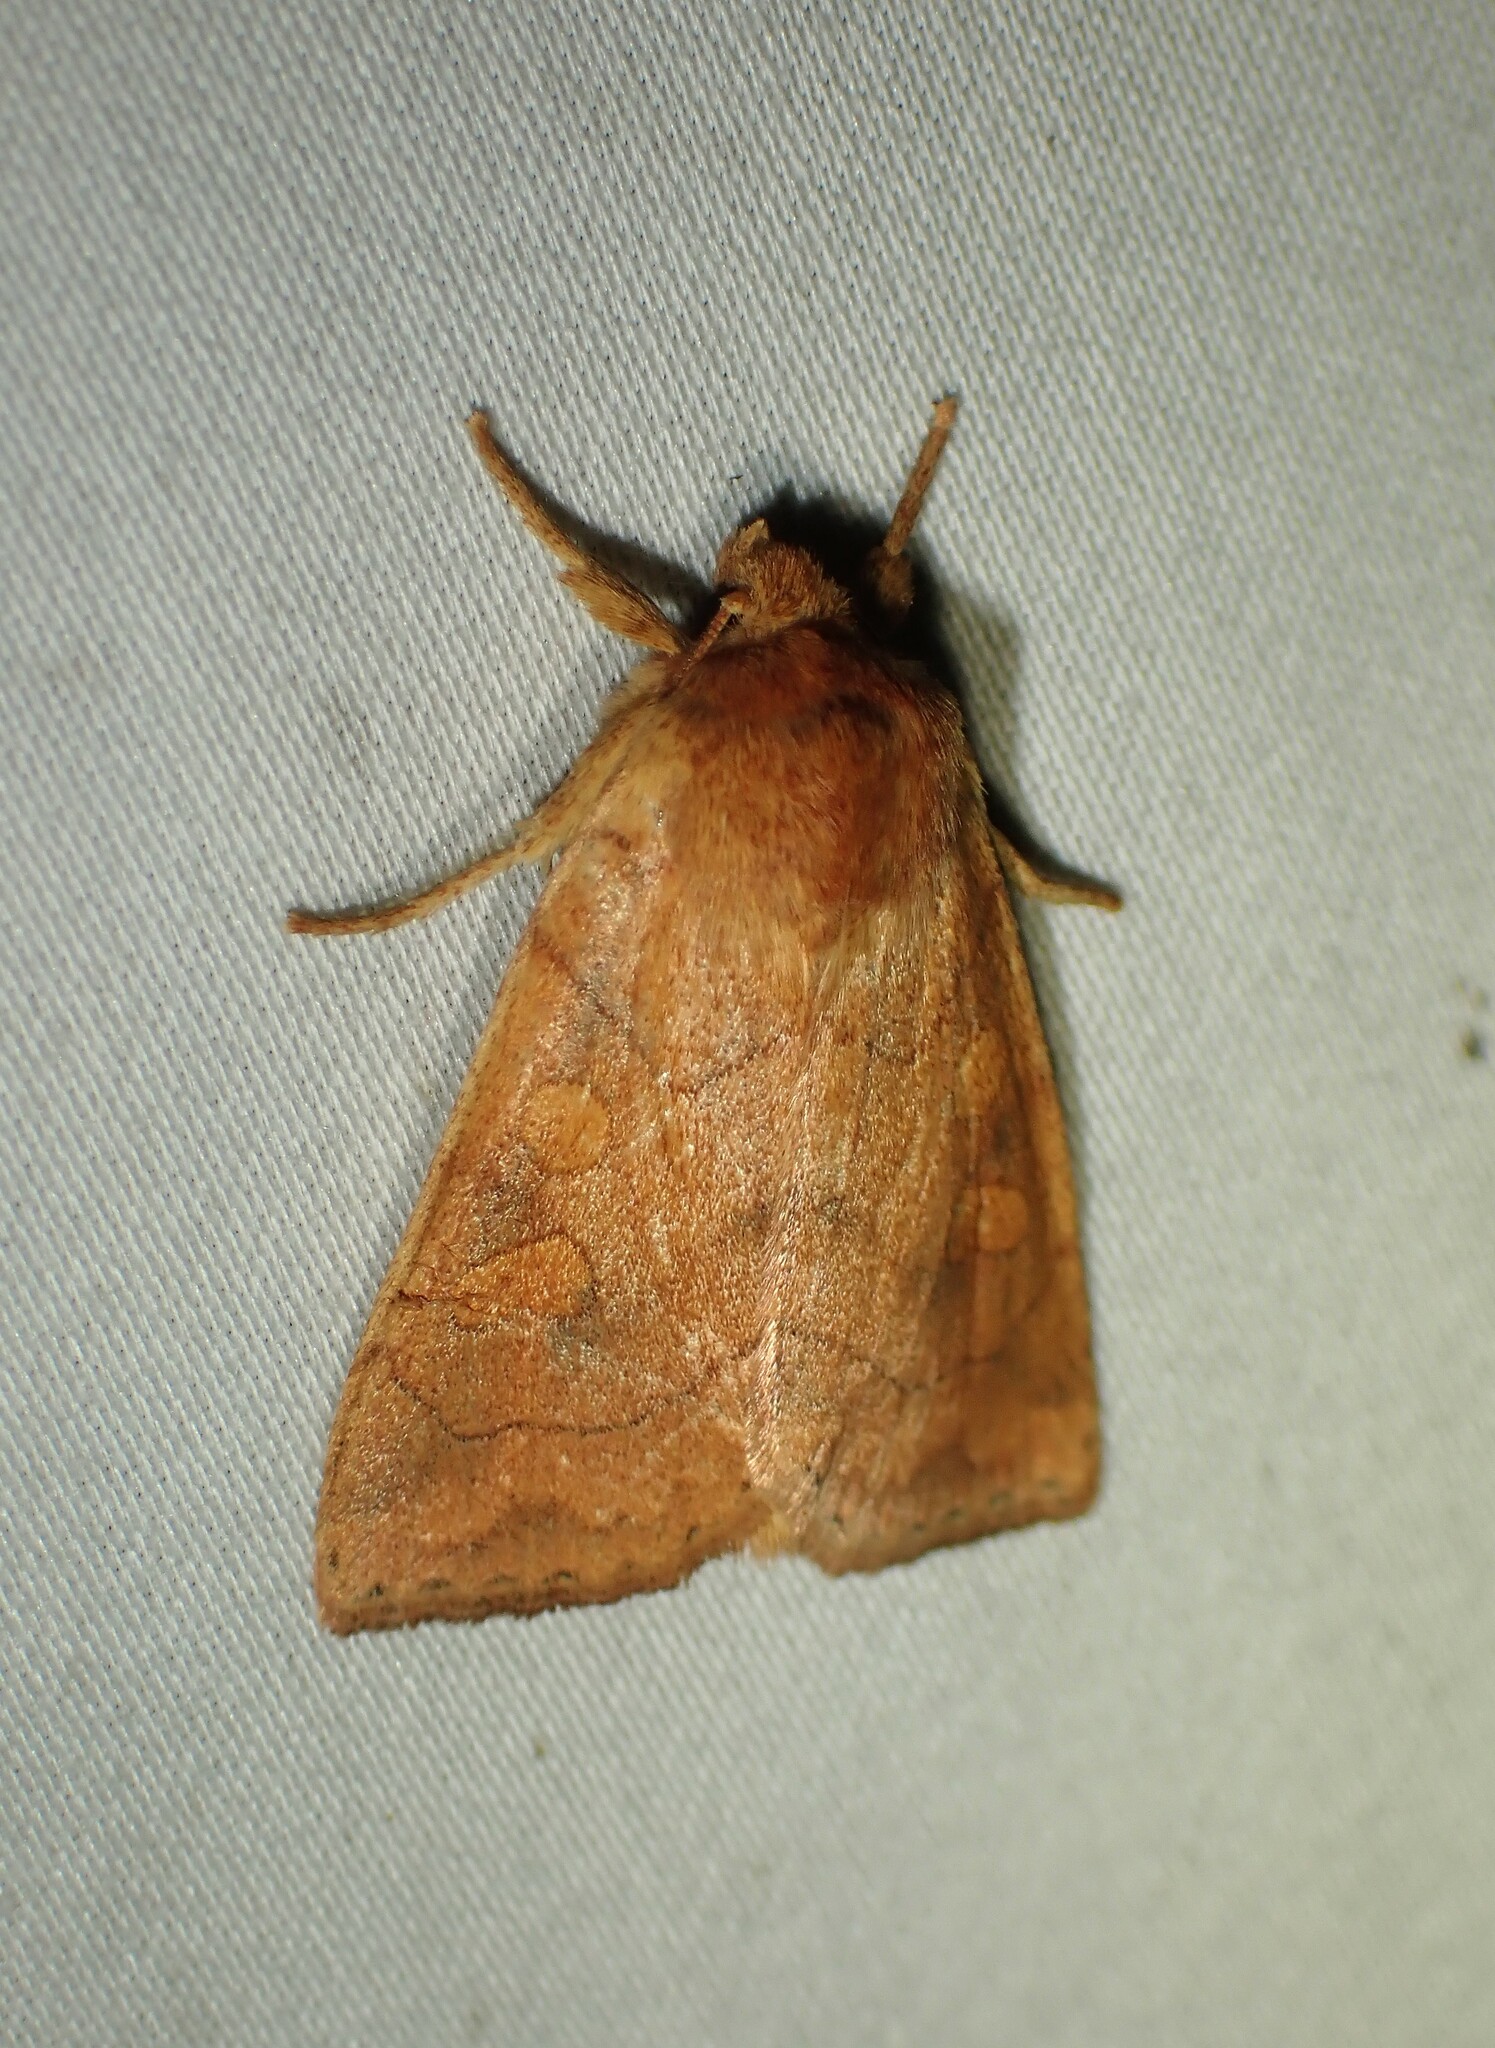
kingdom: Animalia
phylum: Arthropoda
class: Insecta
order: Lepidoptera
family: Noctuidae
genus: Enargia
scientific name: Enargia decolor
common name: Aspen twoleaf tier moth
